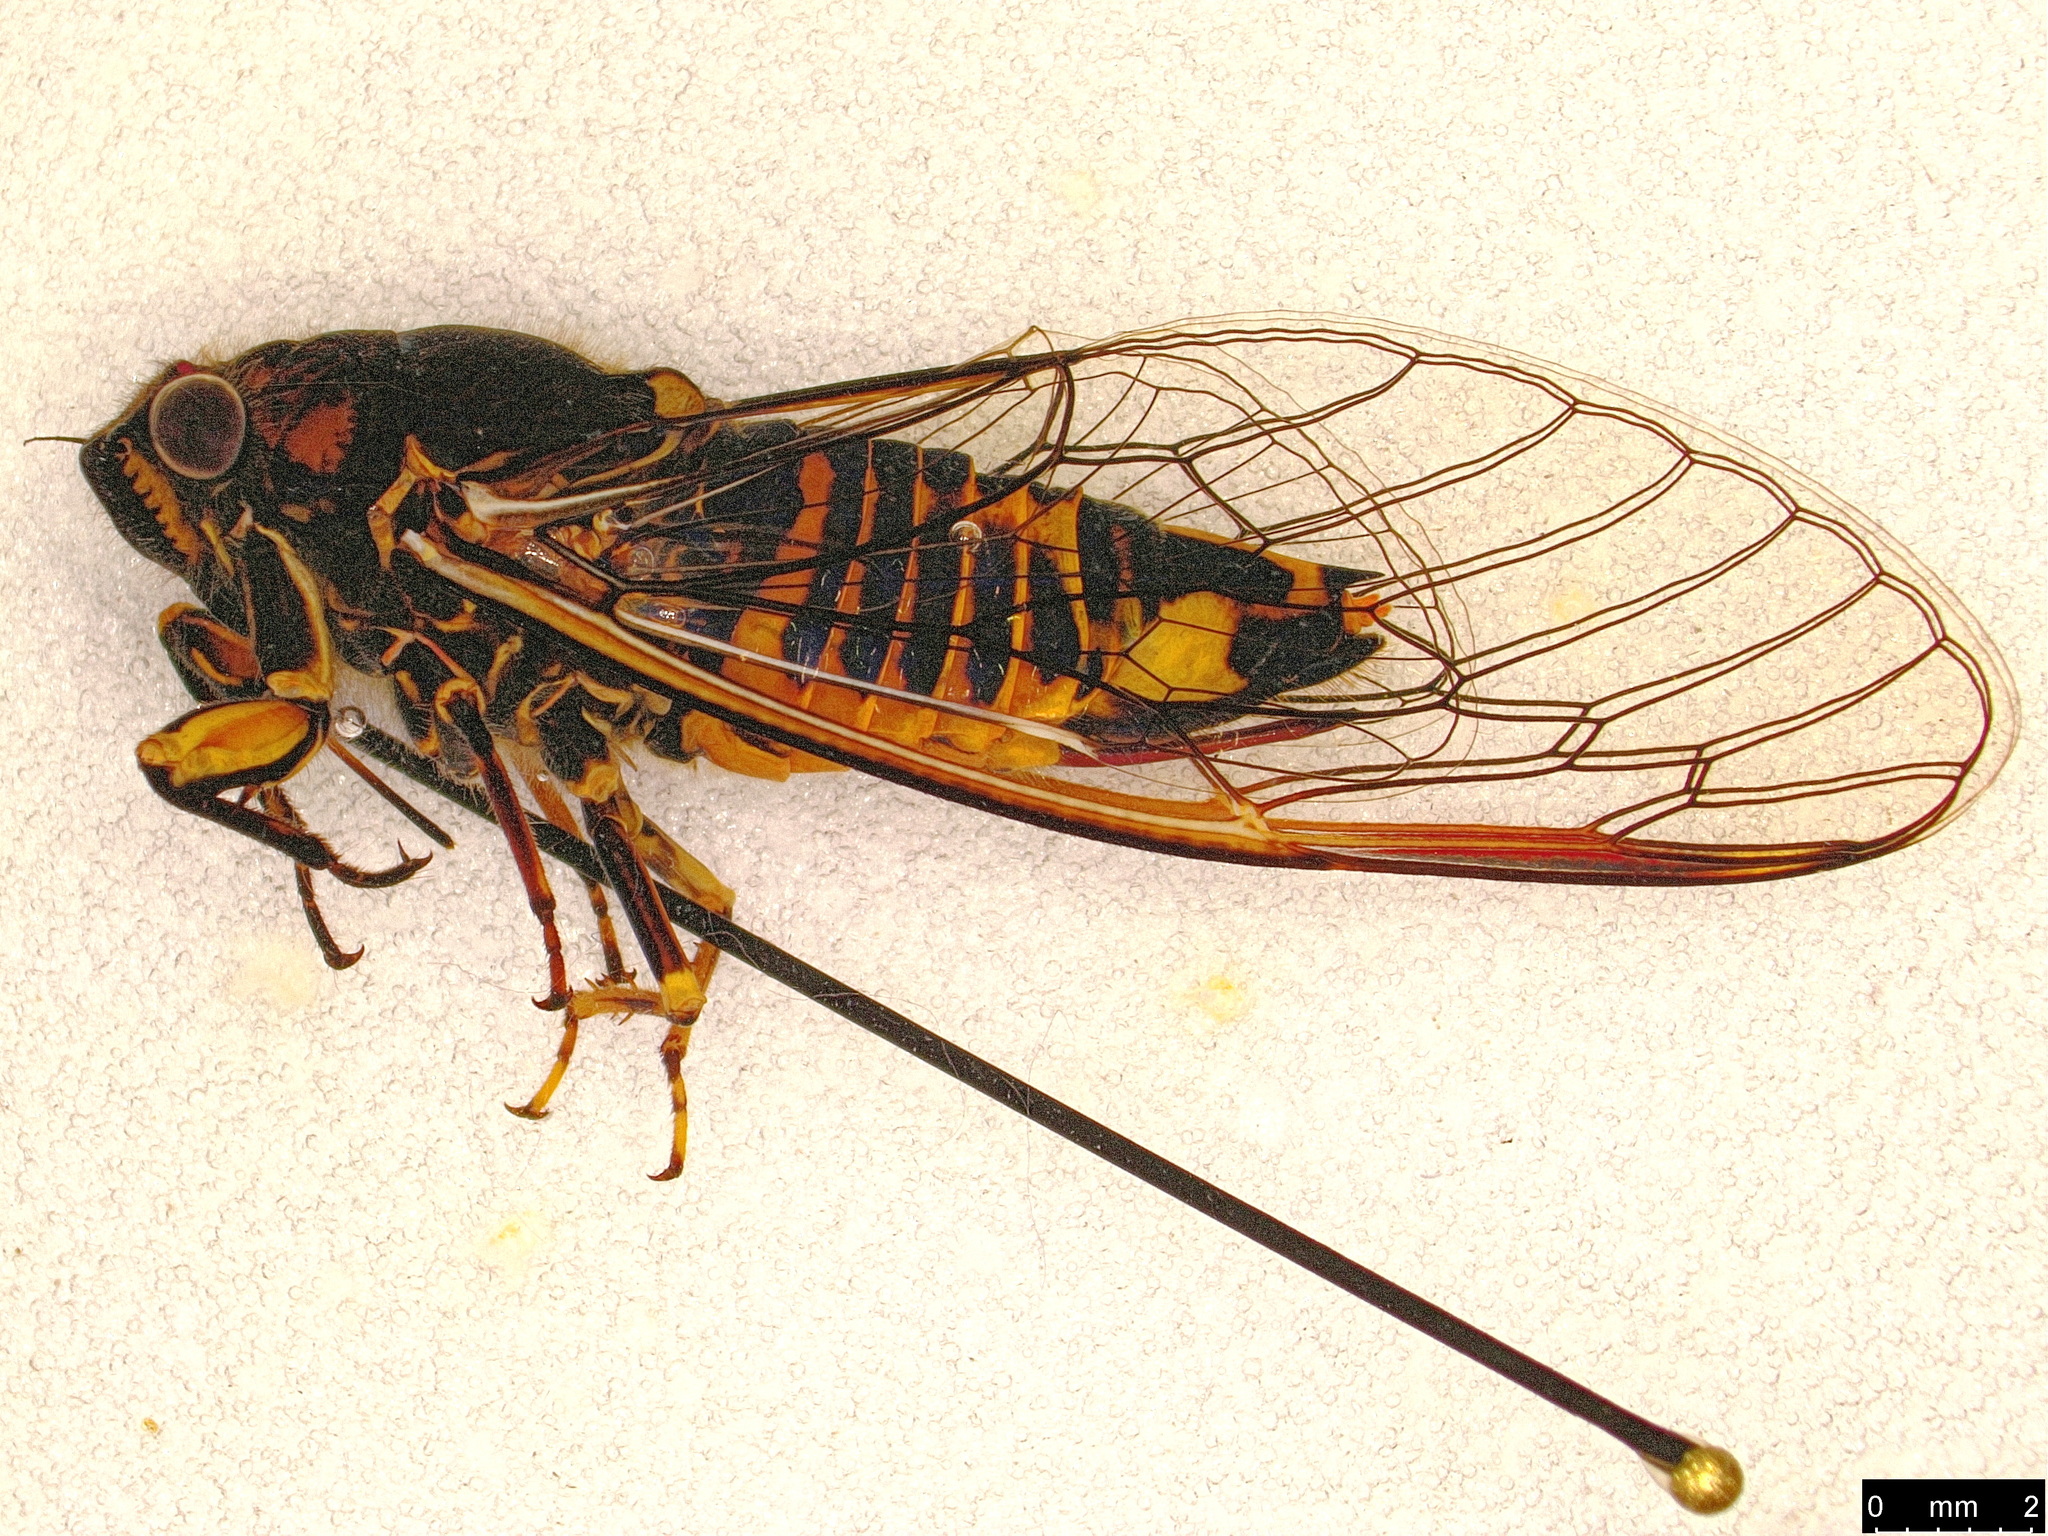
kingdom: Animalia
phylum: Arthropoda
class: Insecta
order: Hemiptera
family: Cicadidae
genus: Yoyetta
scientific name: Yoyetta robertsonae
